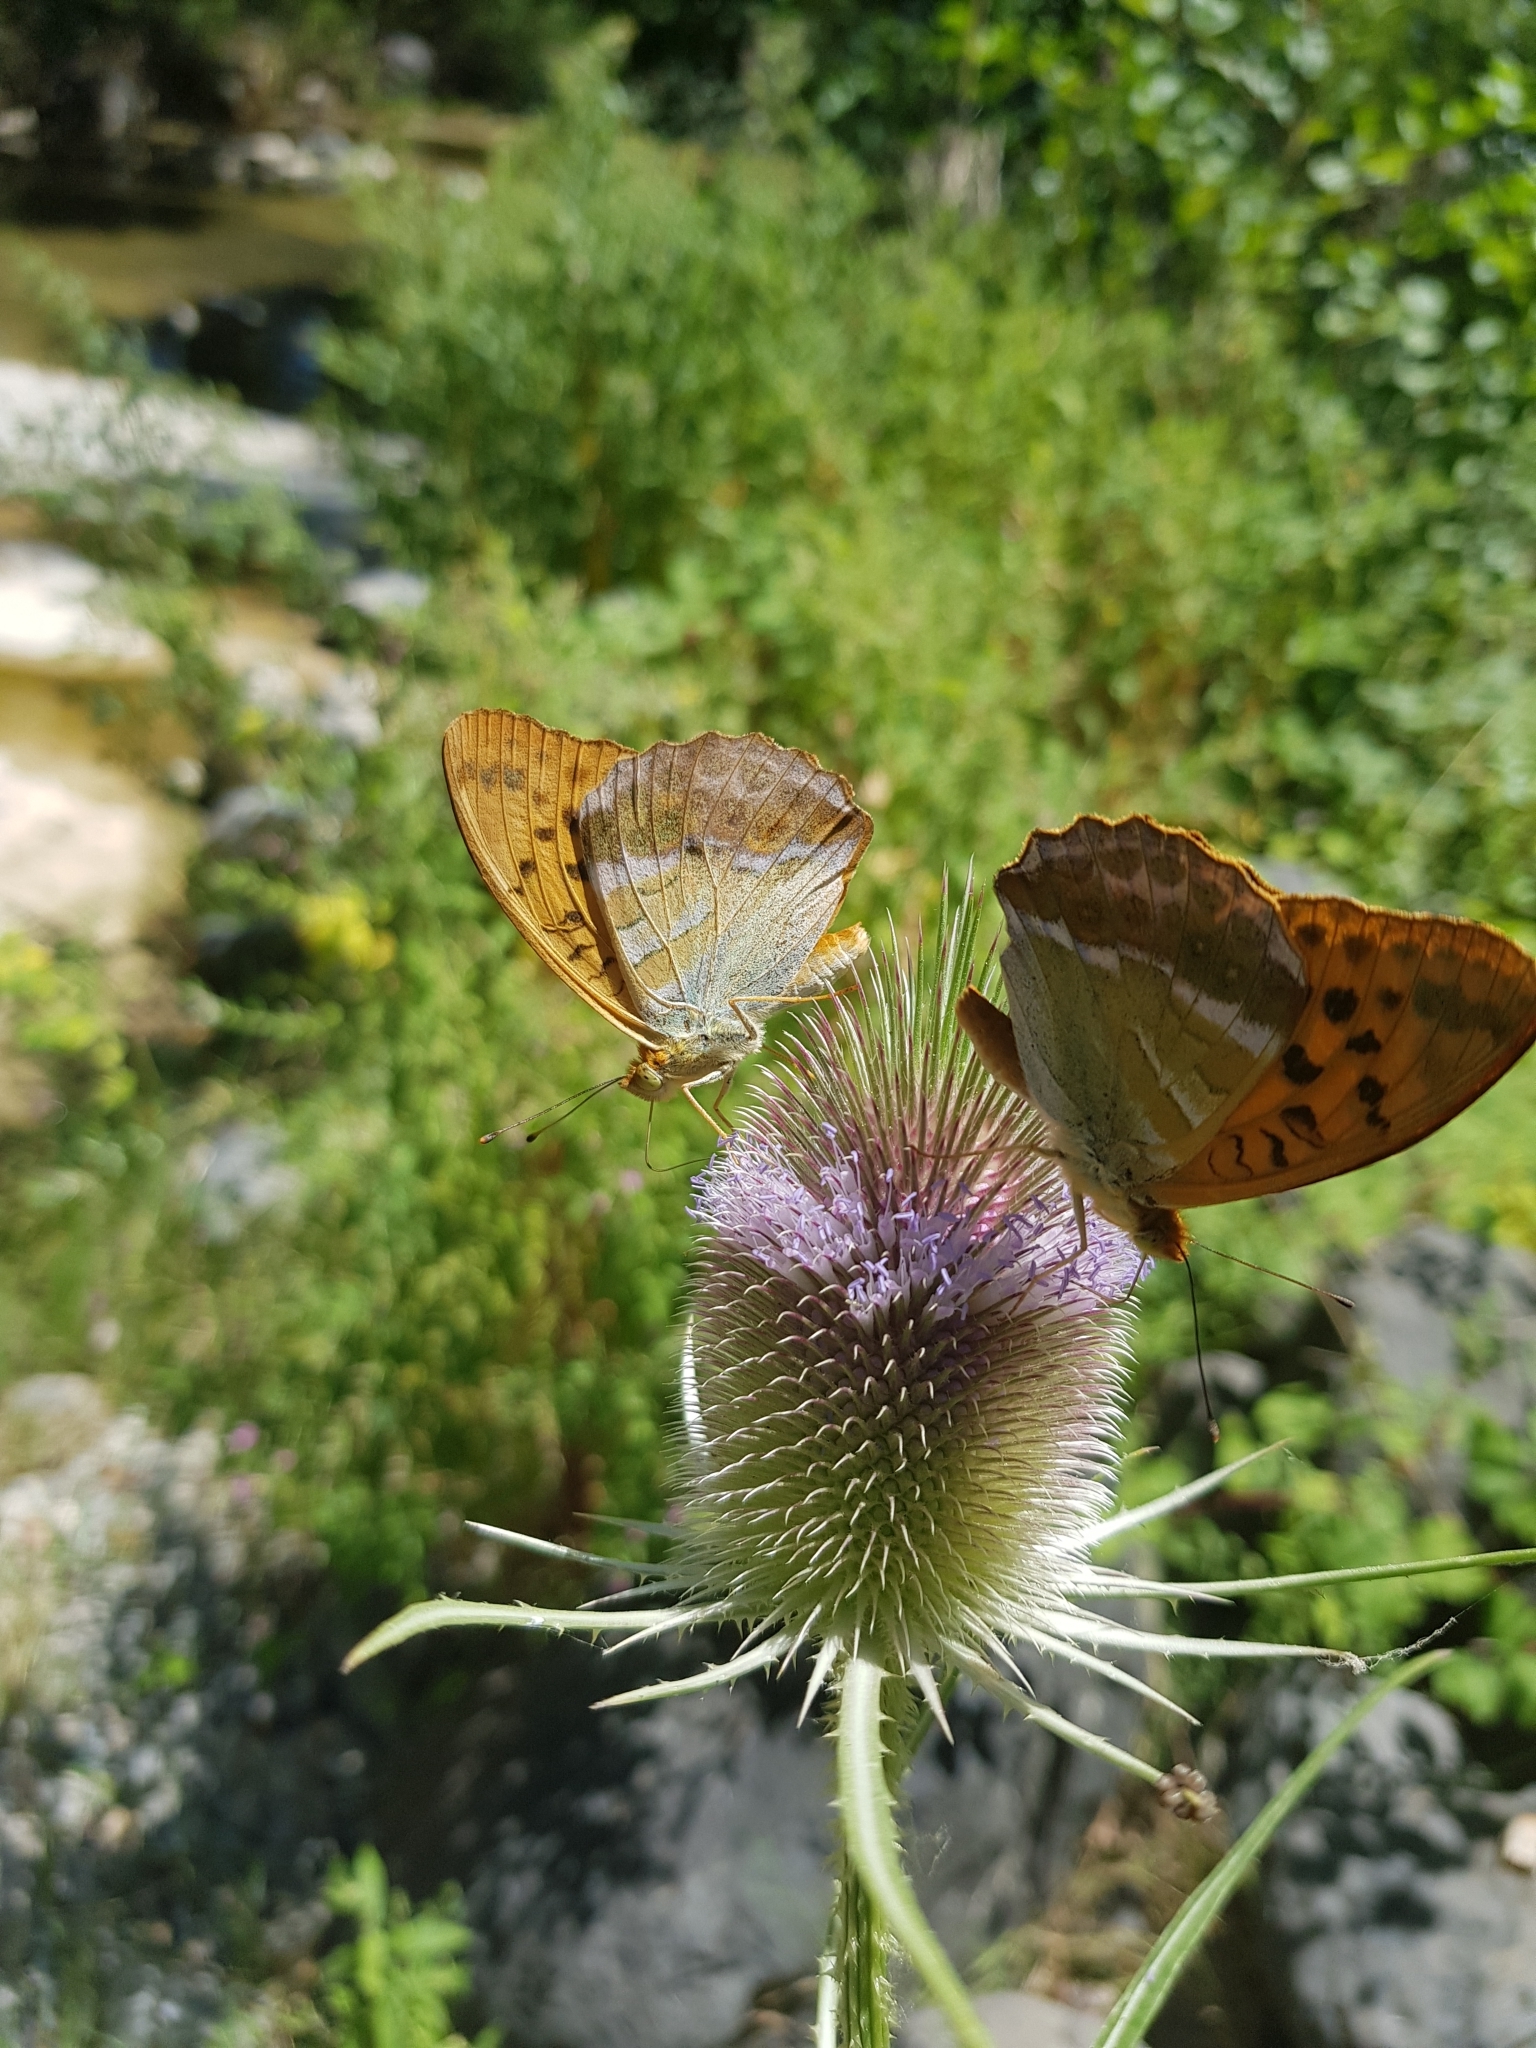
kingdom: Animalia
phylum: Arthropoda
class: Insecta
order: Lepidoptera
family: Nymphalidae
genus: Argynnis
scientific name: Argynnis paphia
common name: Silver-washed fritillary
